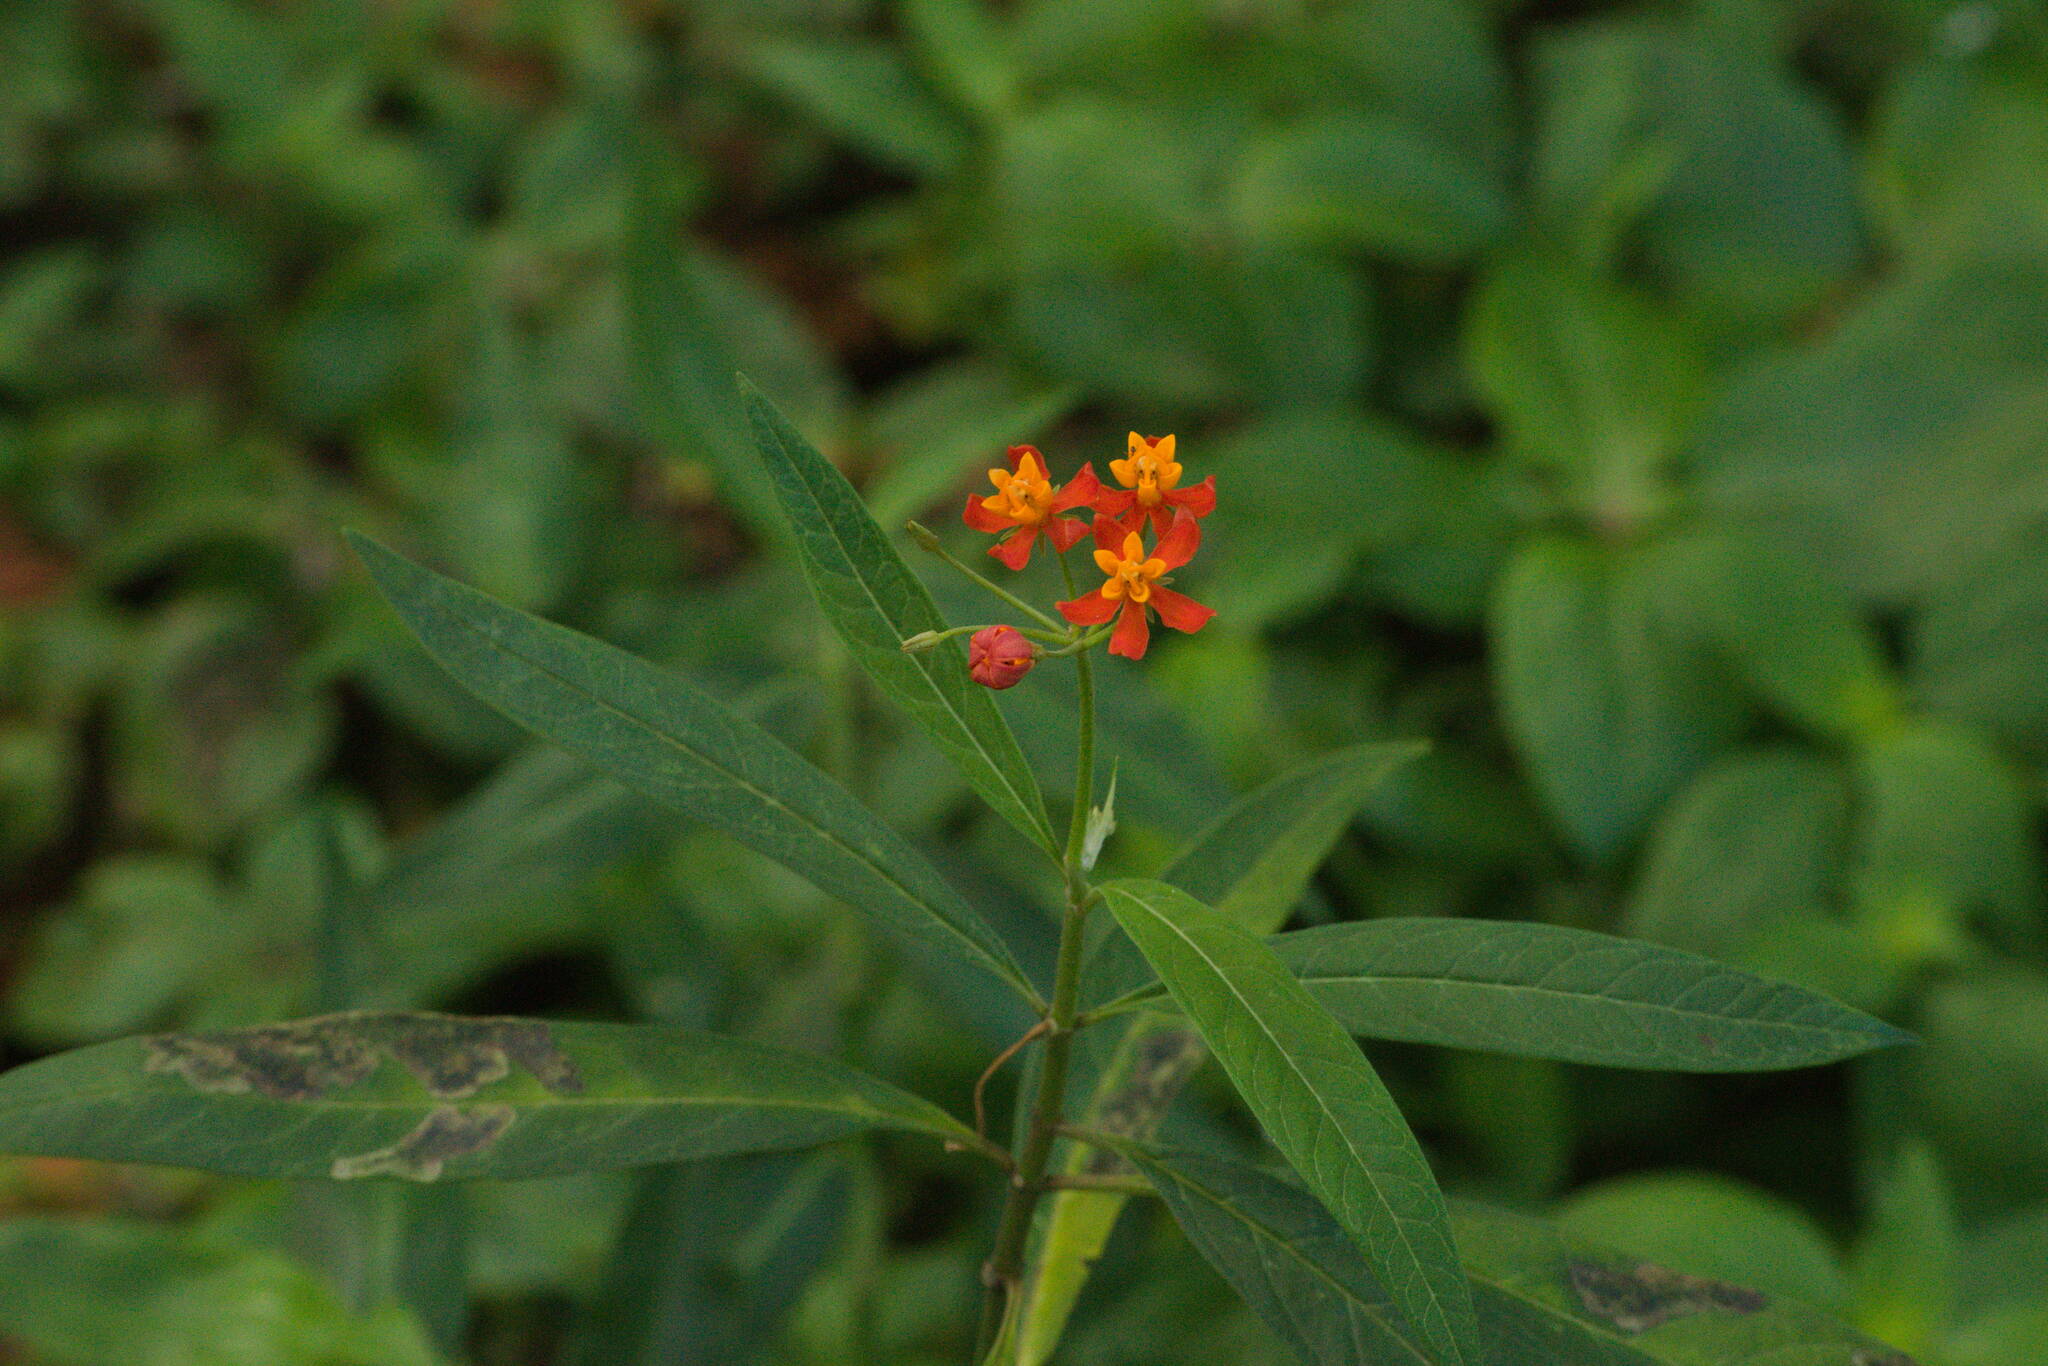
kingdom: Plantae
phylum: Tracheophyta
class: Magnoliopsida
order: Gentianales
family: Apocynaceae
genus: Asclepias
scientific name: Asclepias curassavica
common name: Bloodflower
